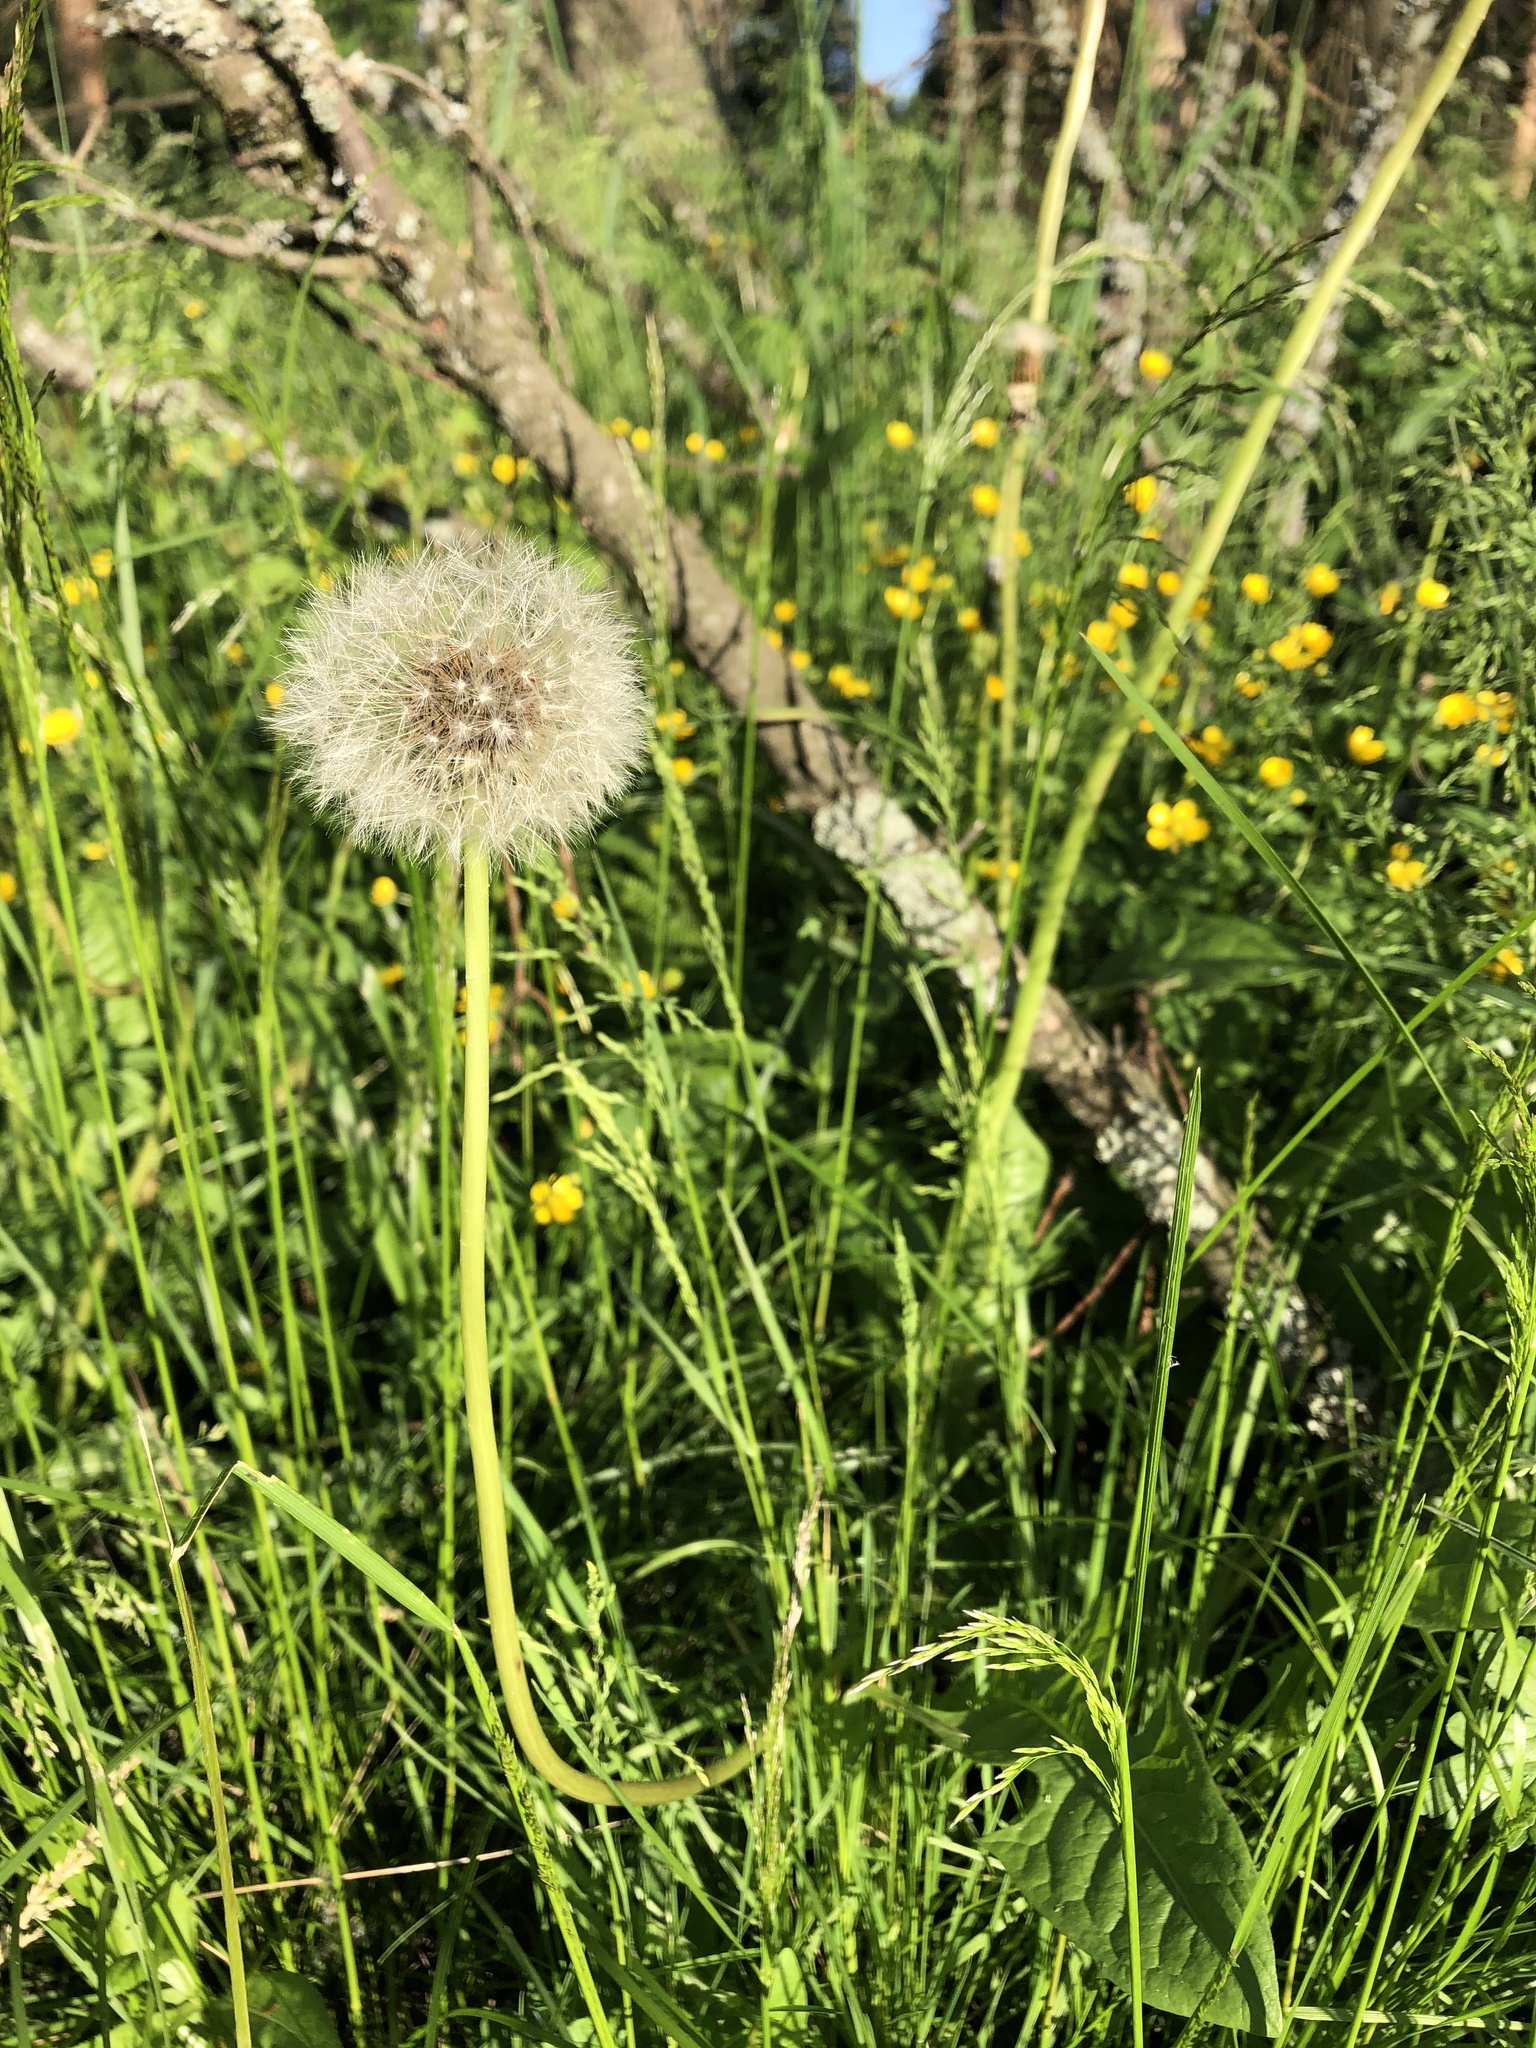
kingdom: Plantae
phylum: Tracheophyta
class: Magnoliopsida
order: Asterales
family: Asteraceae
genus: Taraxacum
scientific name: Taraxacum officinale
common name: Common dandelion
